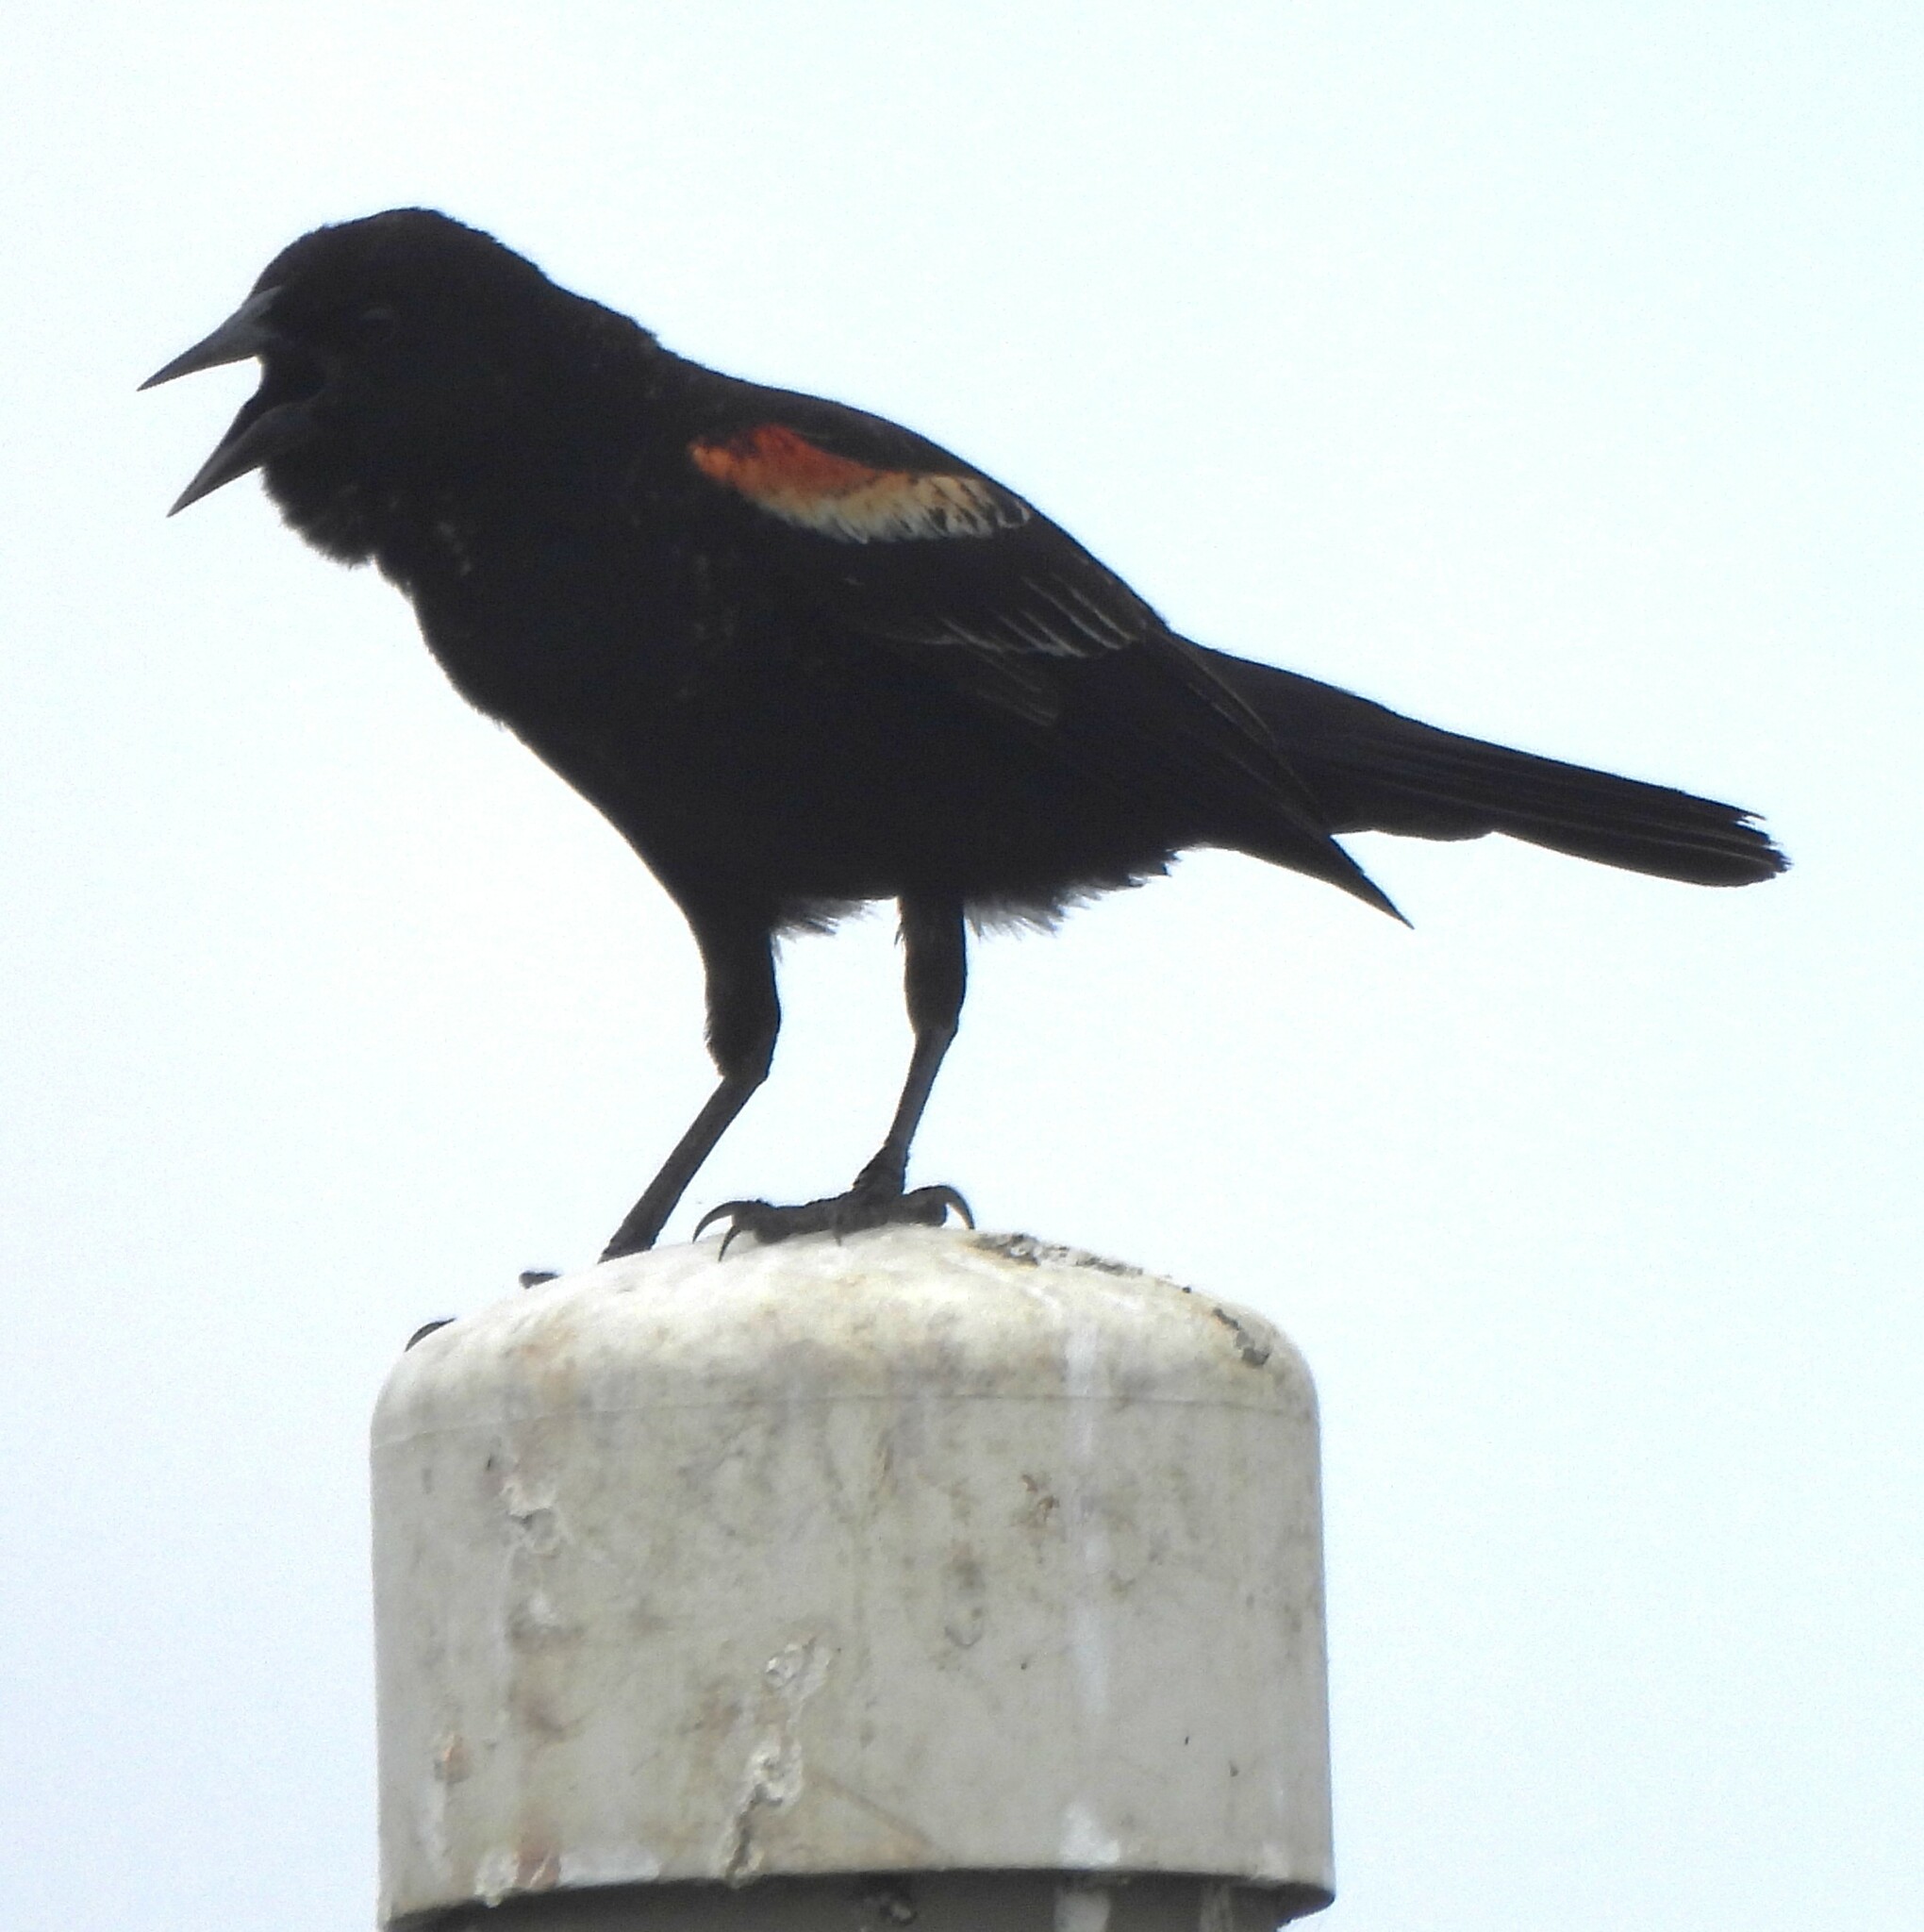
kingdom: Animalia
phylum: Chordata
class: Aves
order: Passeriformes
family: Icteridae
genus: Agelaius
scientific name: Agelaius phoeniceus
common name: Red-winged blackbird
